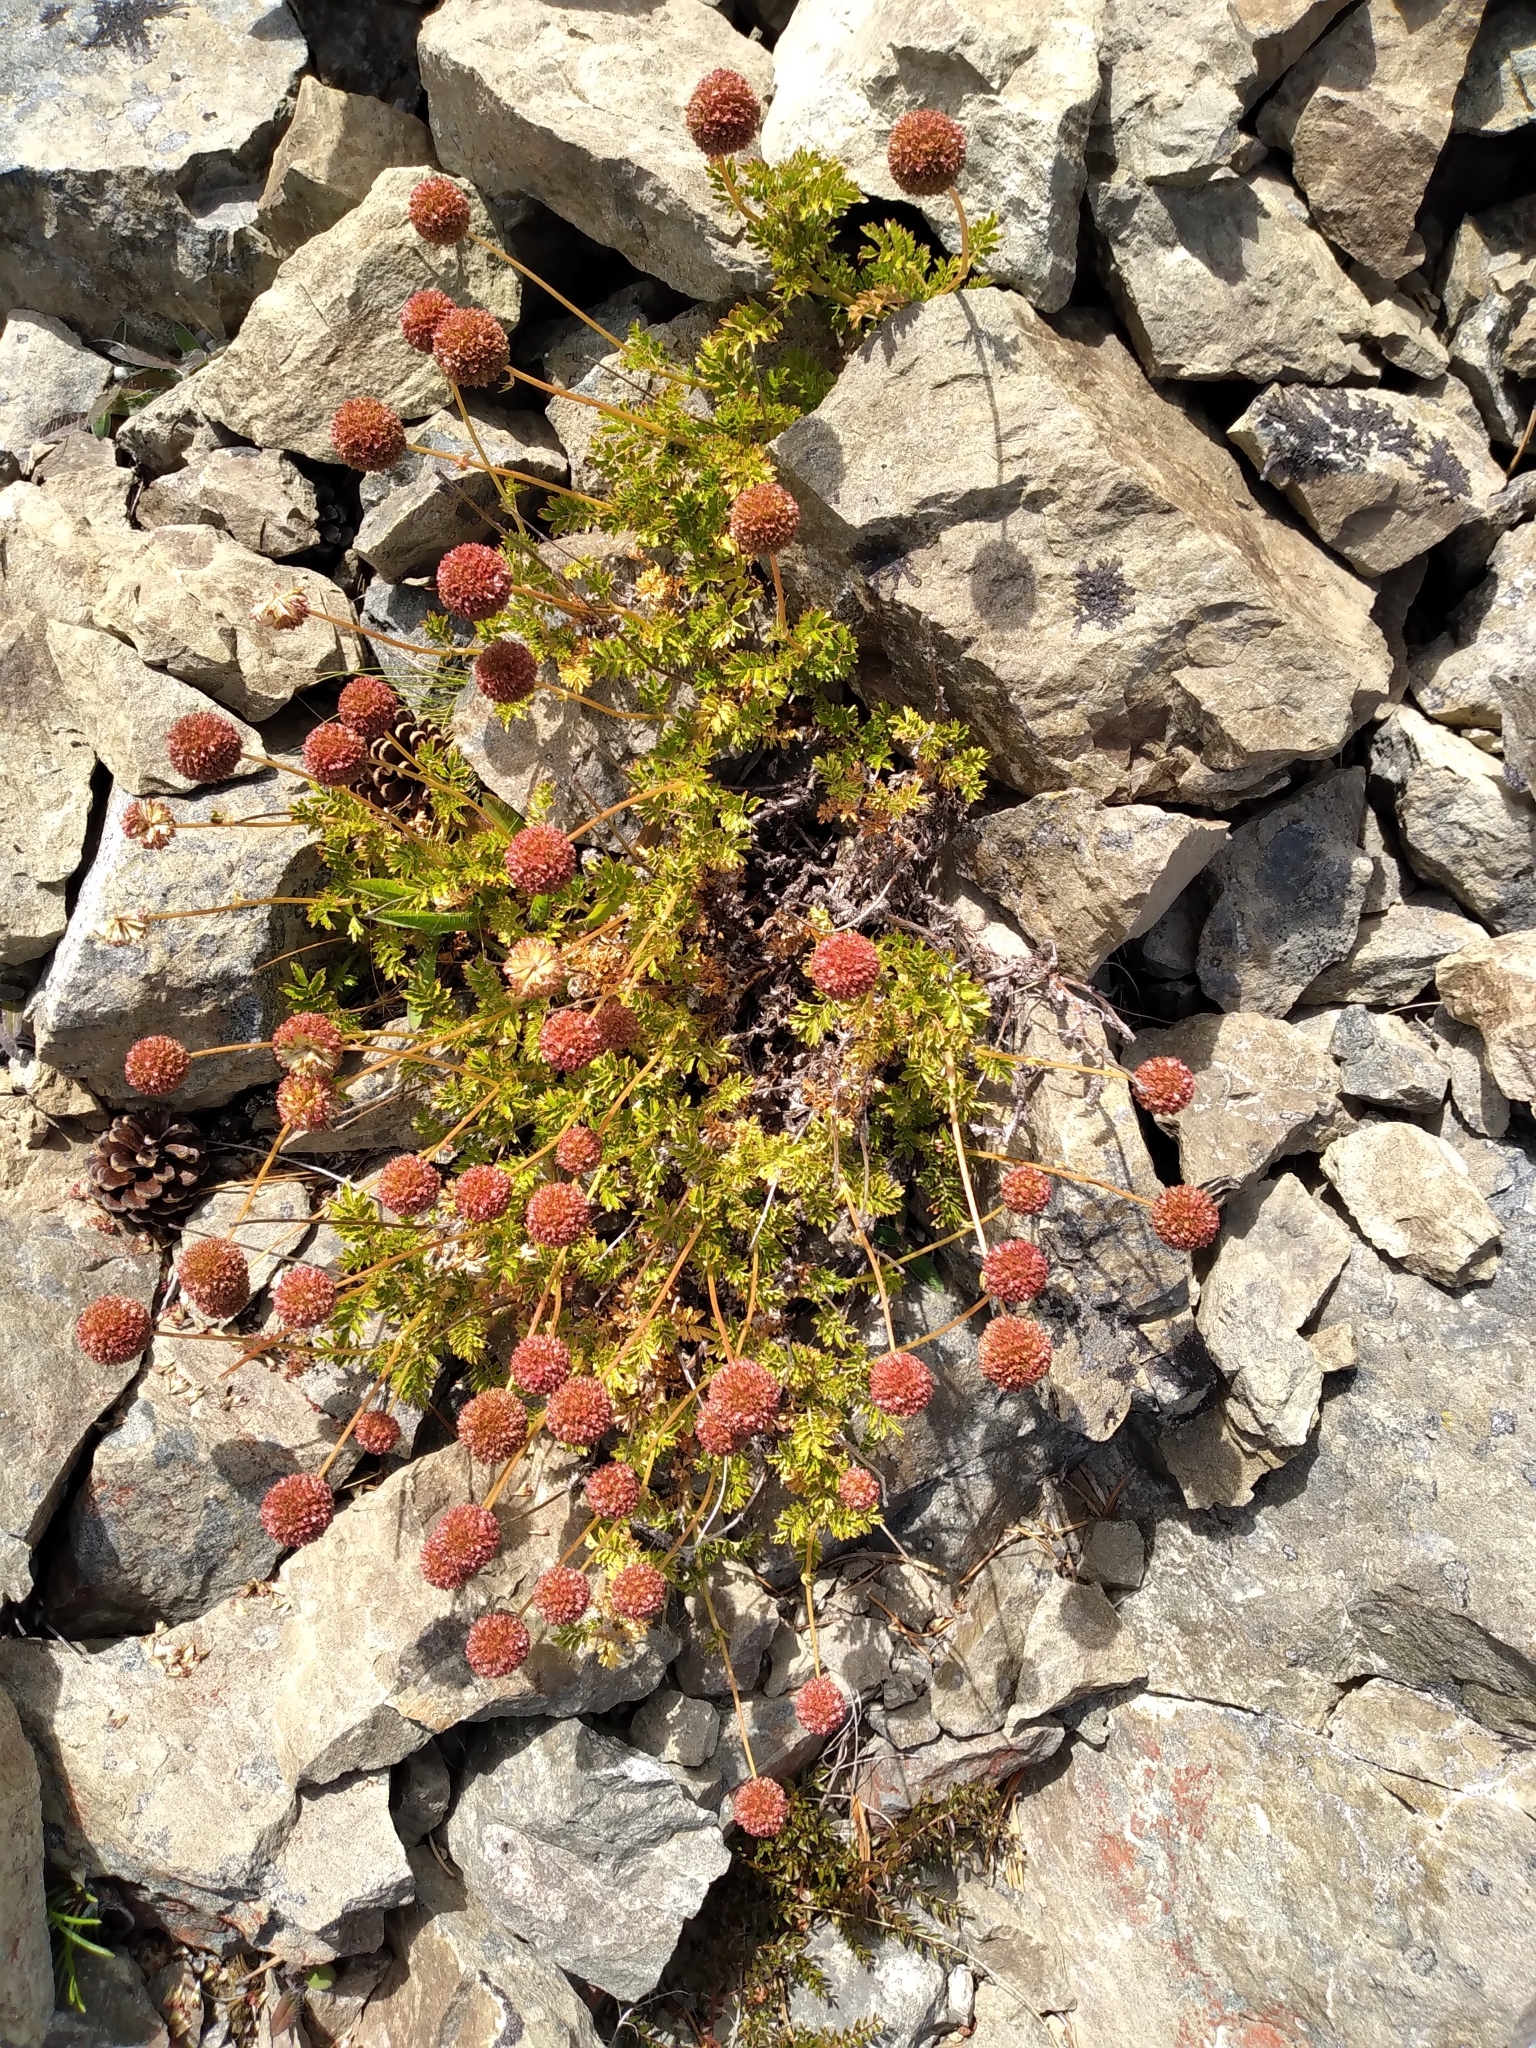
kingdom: Plantae
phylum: Tracheophyta
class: Magnoliopsida
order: Rosales
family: Rosaceae
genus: Acaena
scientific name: Acaena glabra
